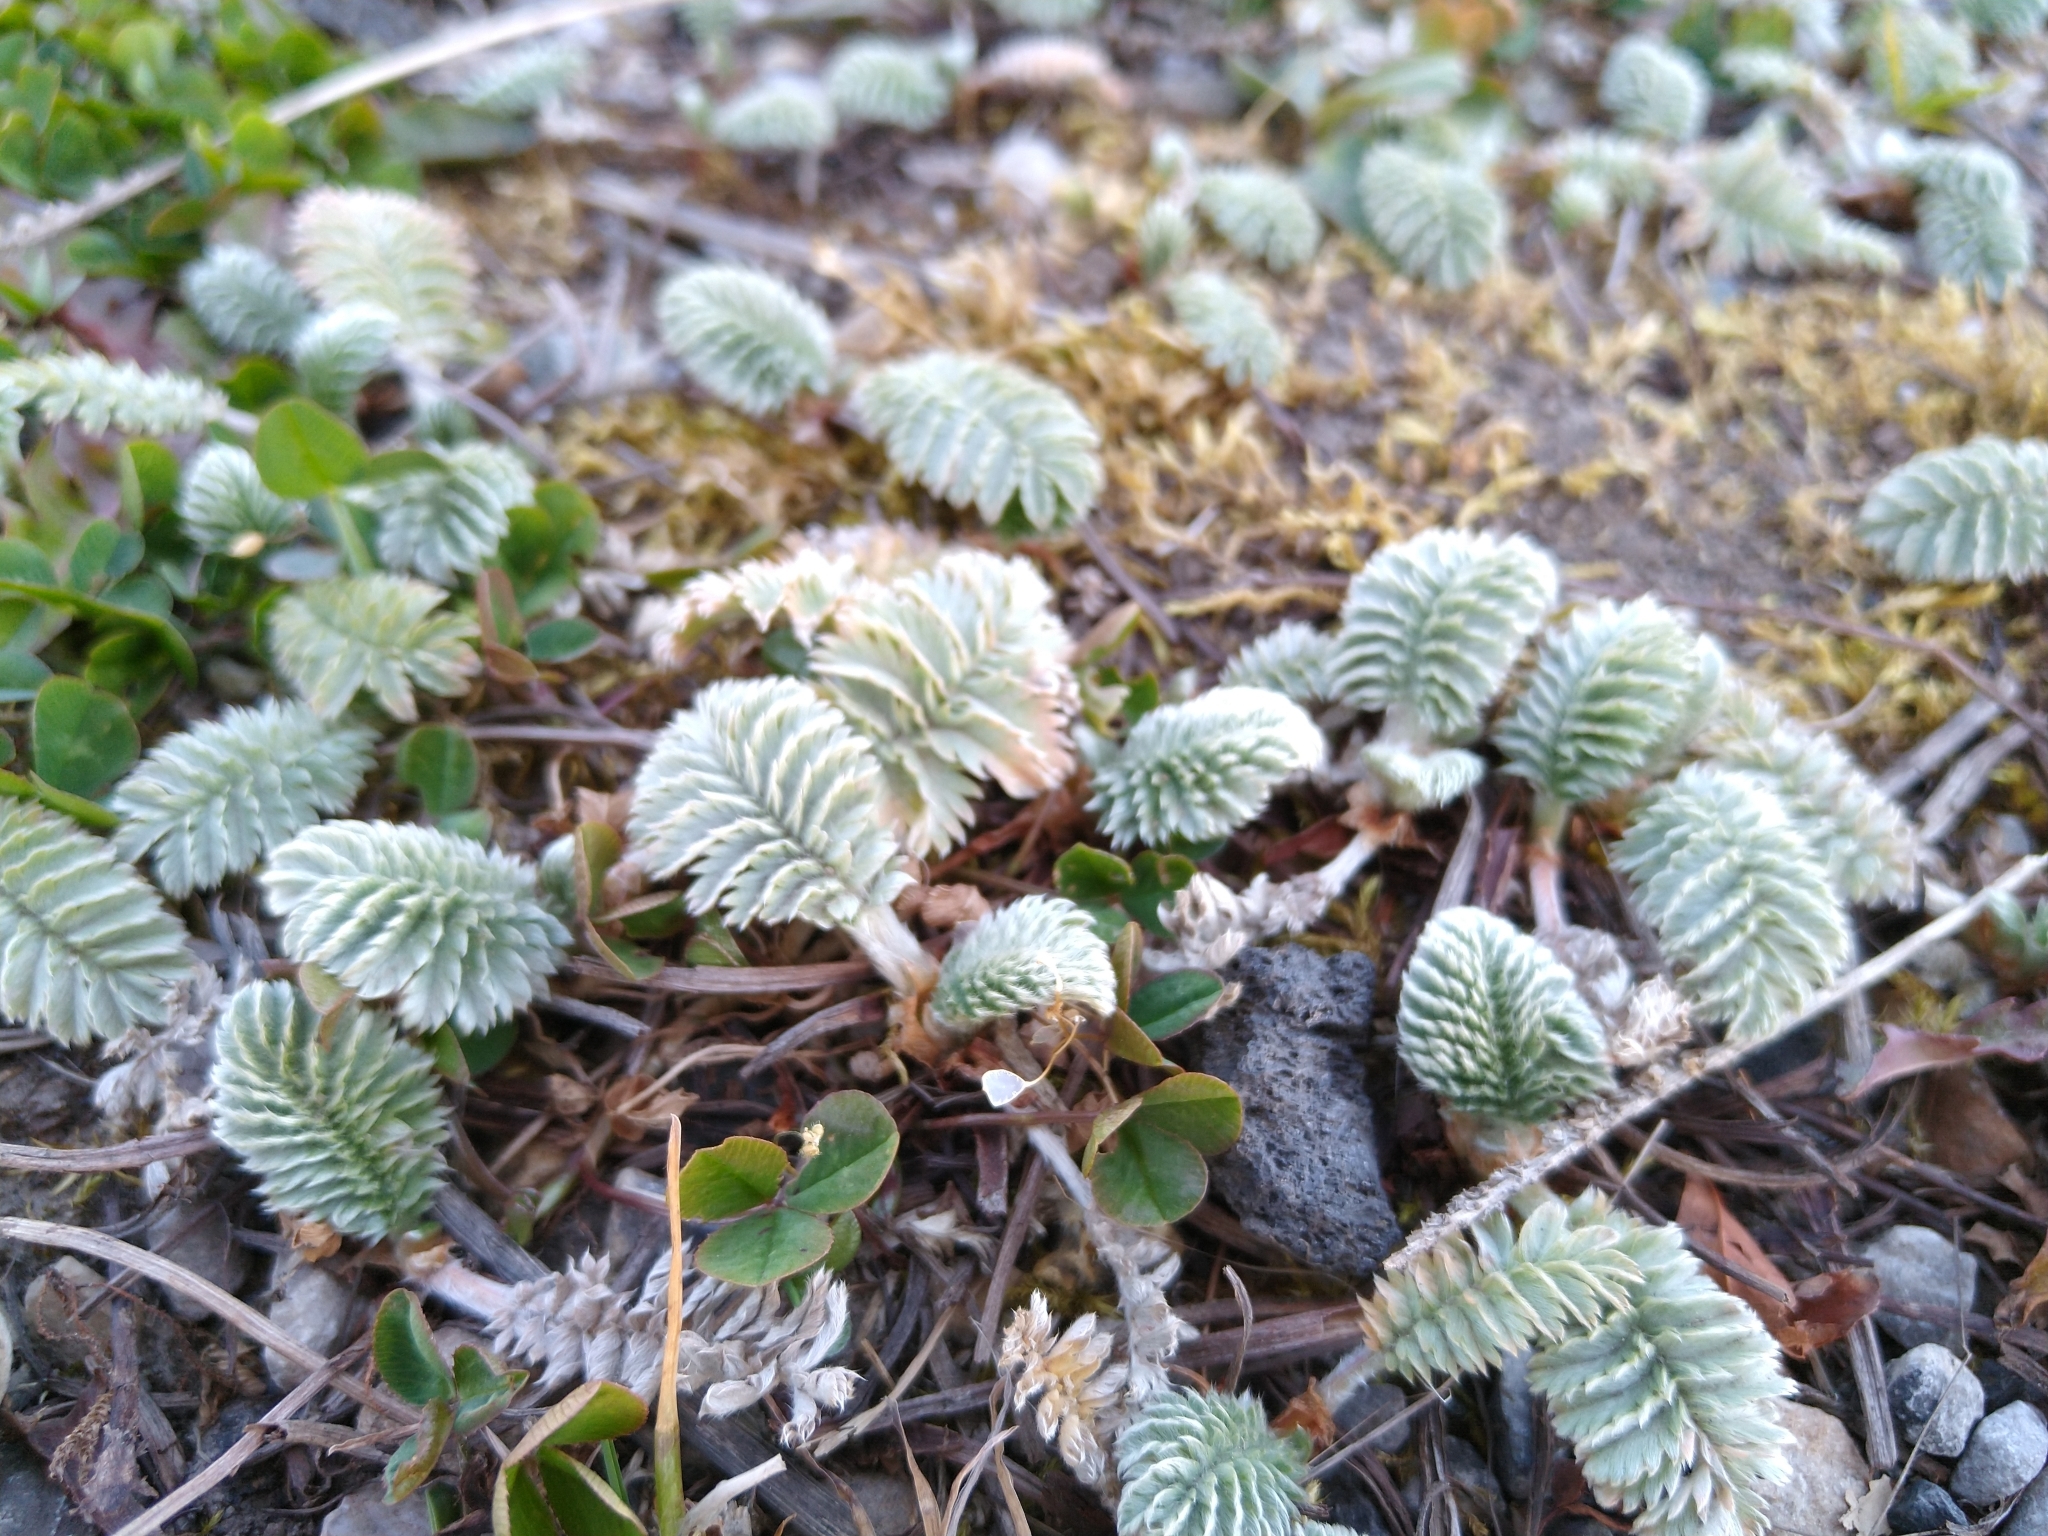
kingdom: Plantae
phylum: Tracheophyta
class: Magnoliopsida
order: Rosales
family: Rosaceae
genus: Argentina
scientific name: Argentina anserina
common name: Common silverweed
